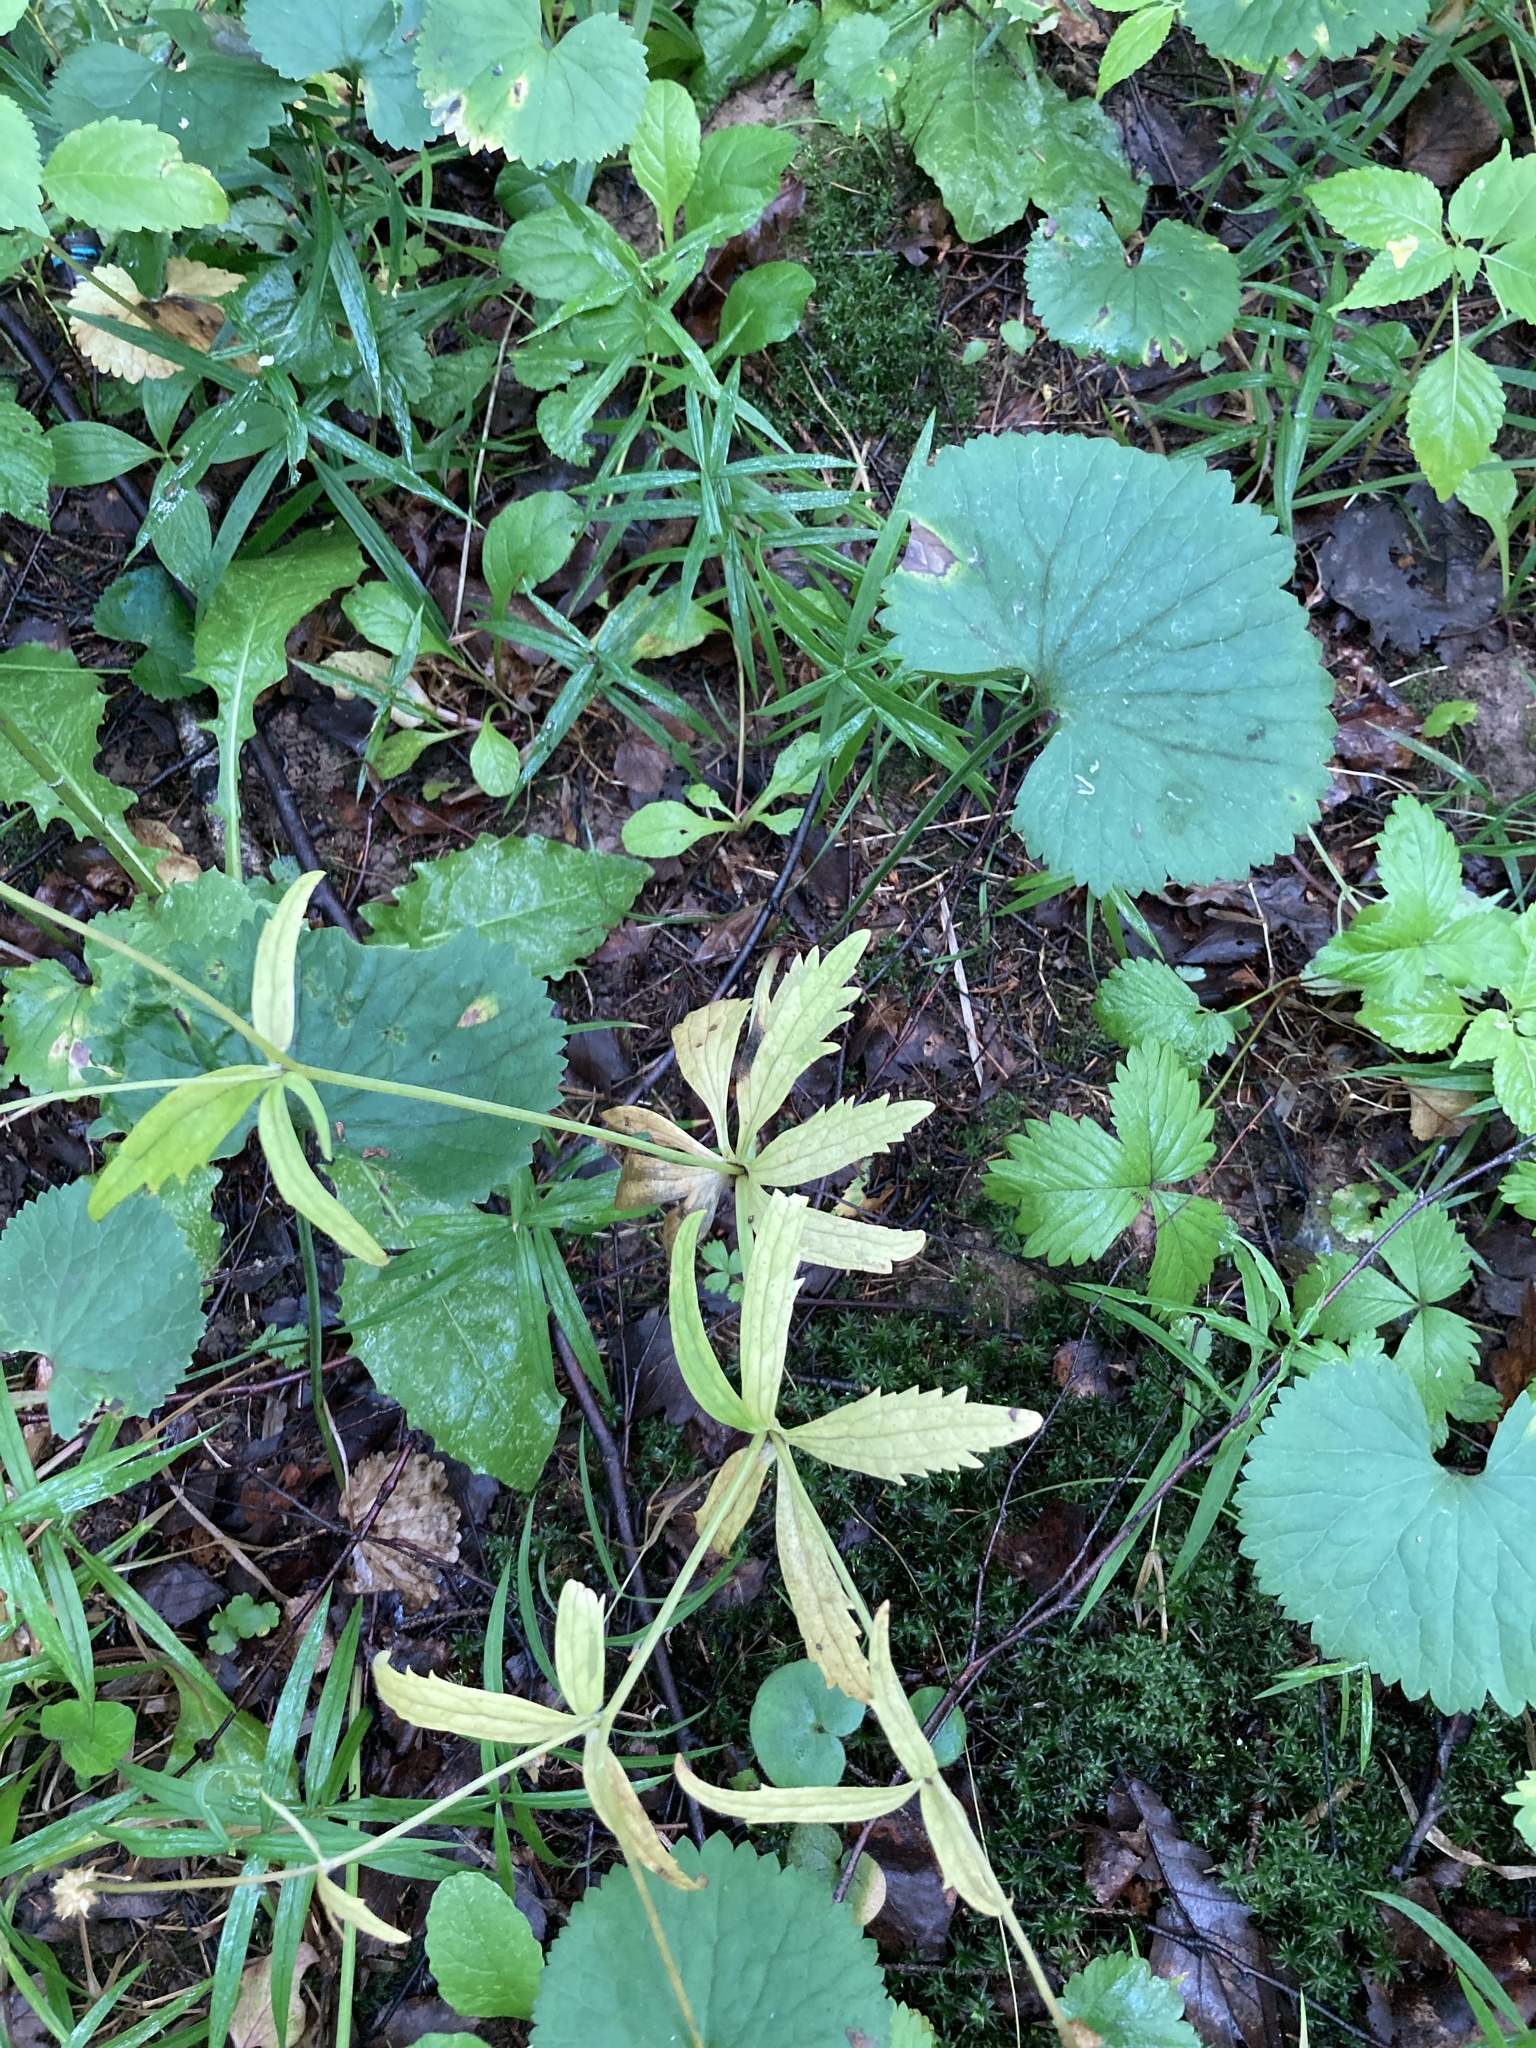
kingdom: Plantae
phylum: Tracheophyta
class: Magnoliopsida
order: Ranunculales
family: Ranunculaceae
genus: Ranunculus
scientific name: Ranunculus cassubicus
